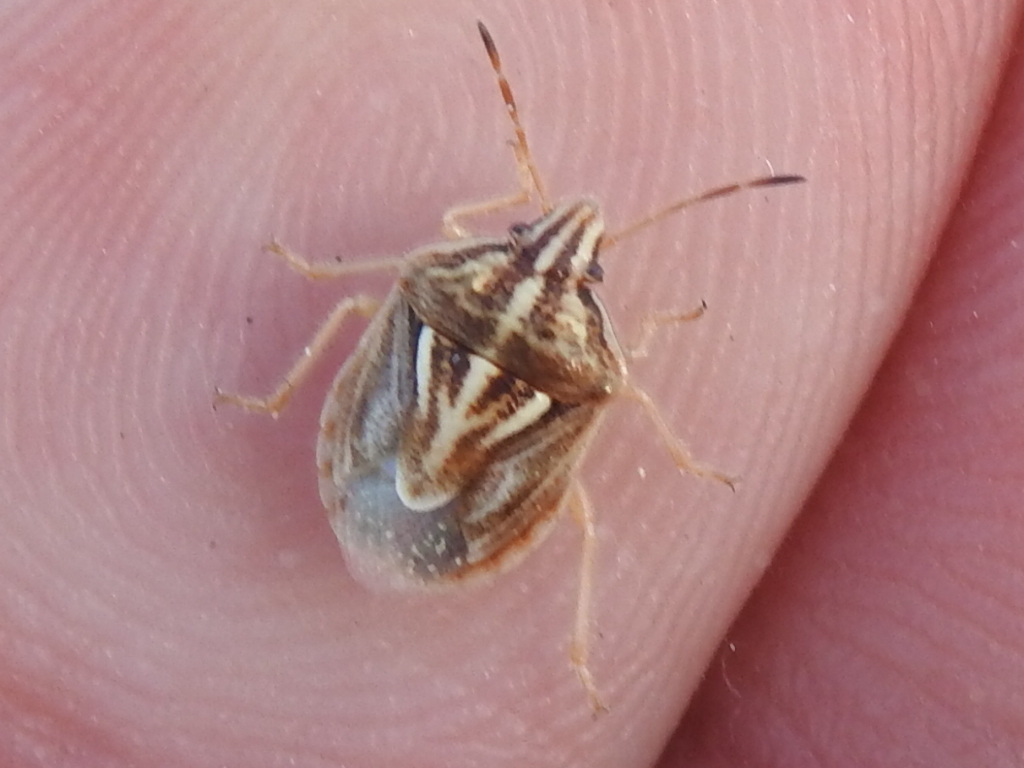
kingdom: Animalia
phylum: Arthropoda
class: Insecta
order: Hemiptera
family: Pentatomidae
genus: Trichopepla
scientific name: Trichopepla semivittata
